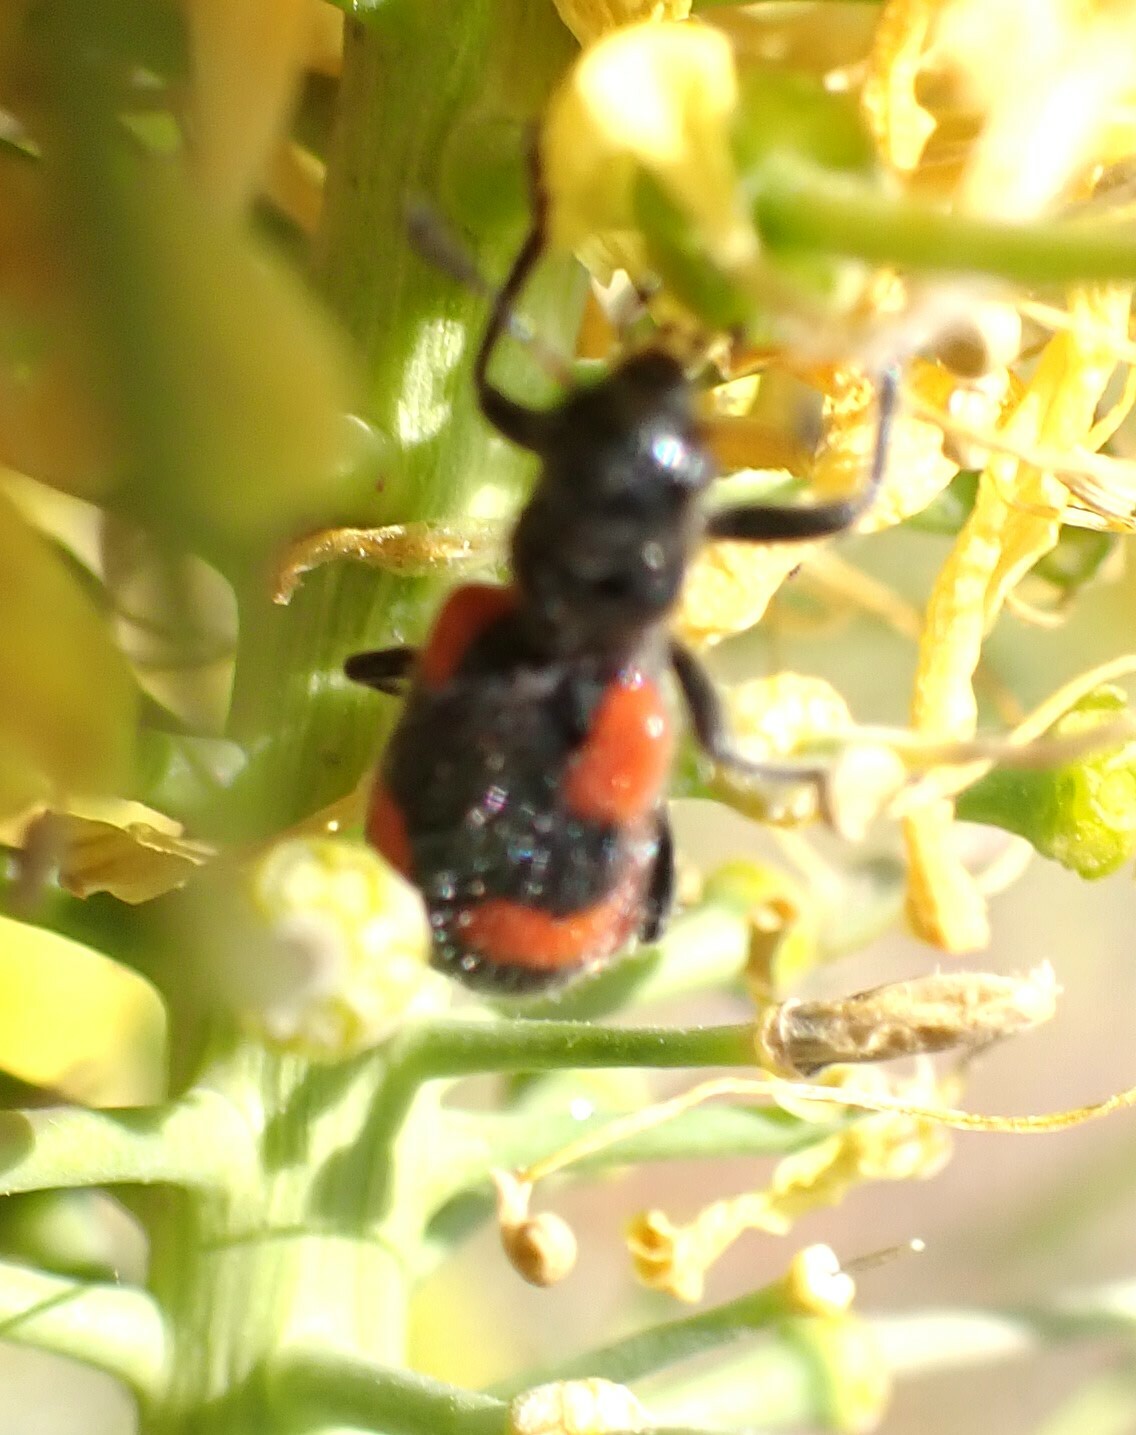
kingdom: Animalia
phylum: Arthropoda
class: Insecta
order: Coleoptera
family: Meloidae
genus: Eupompha
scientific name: Eupompha elegans
